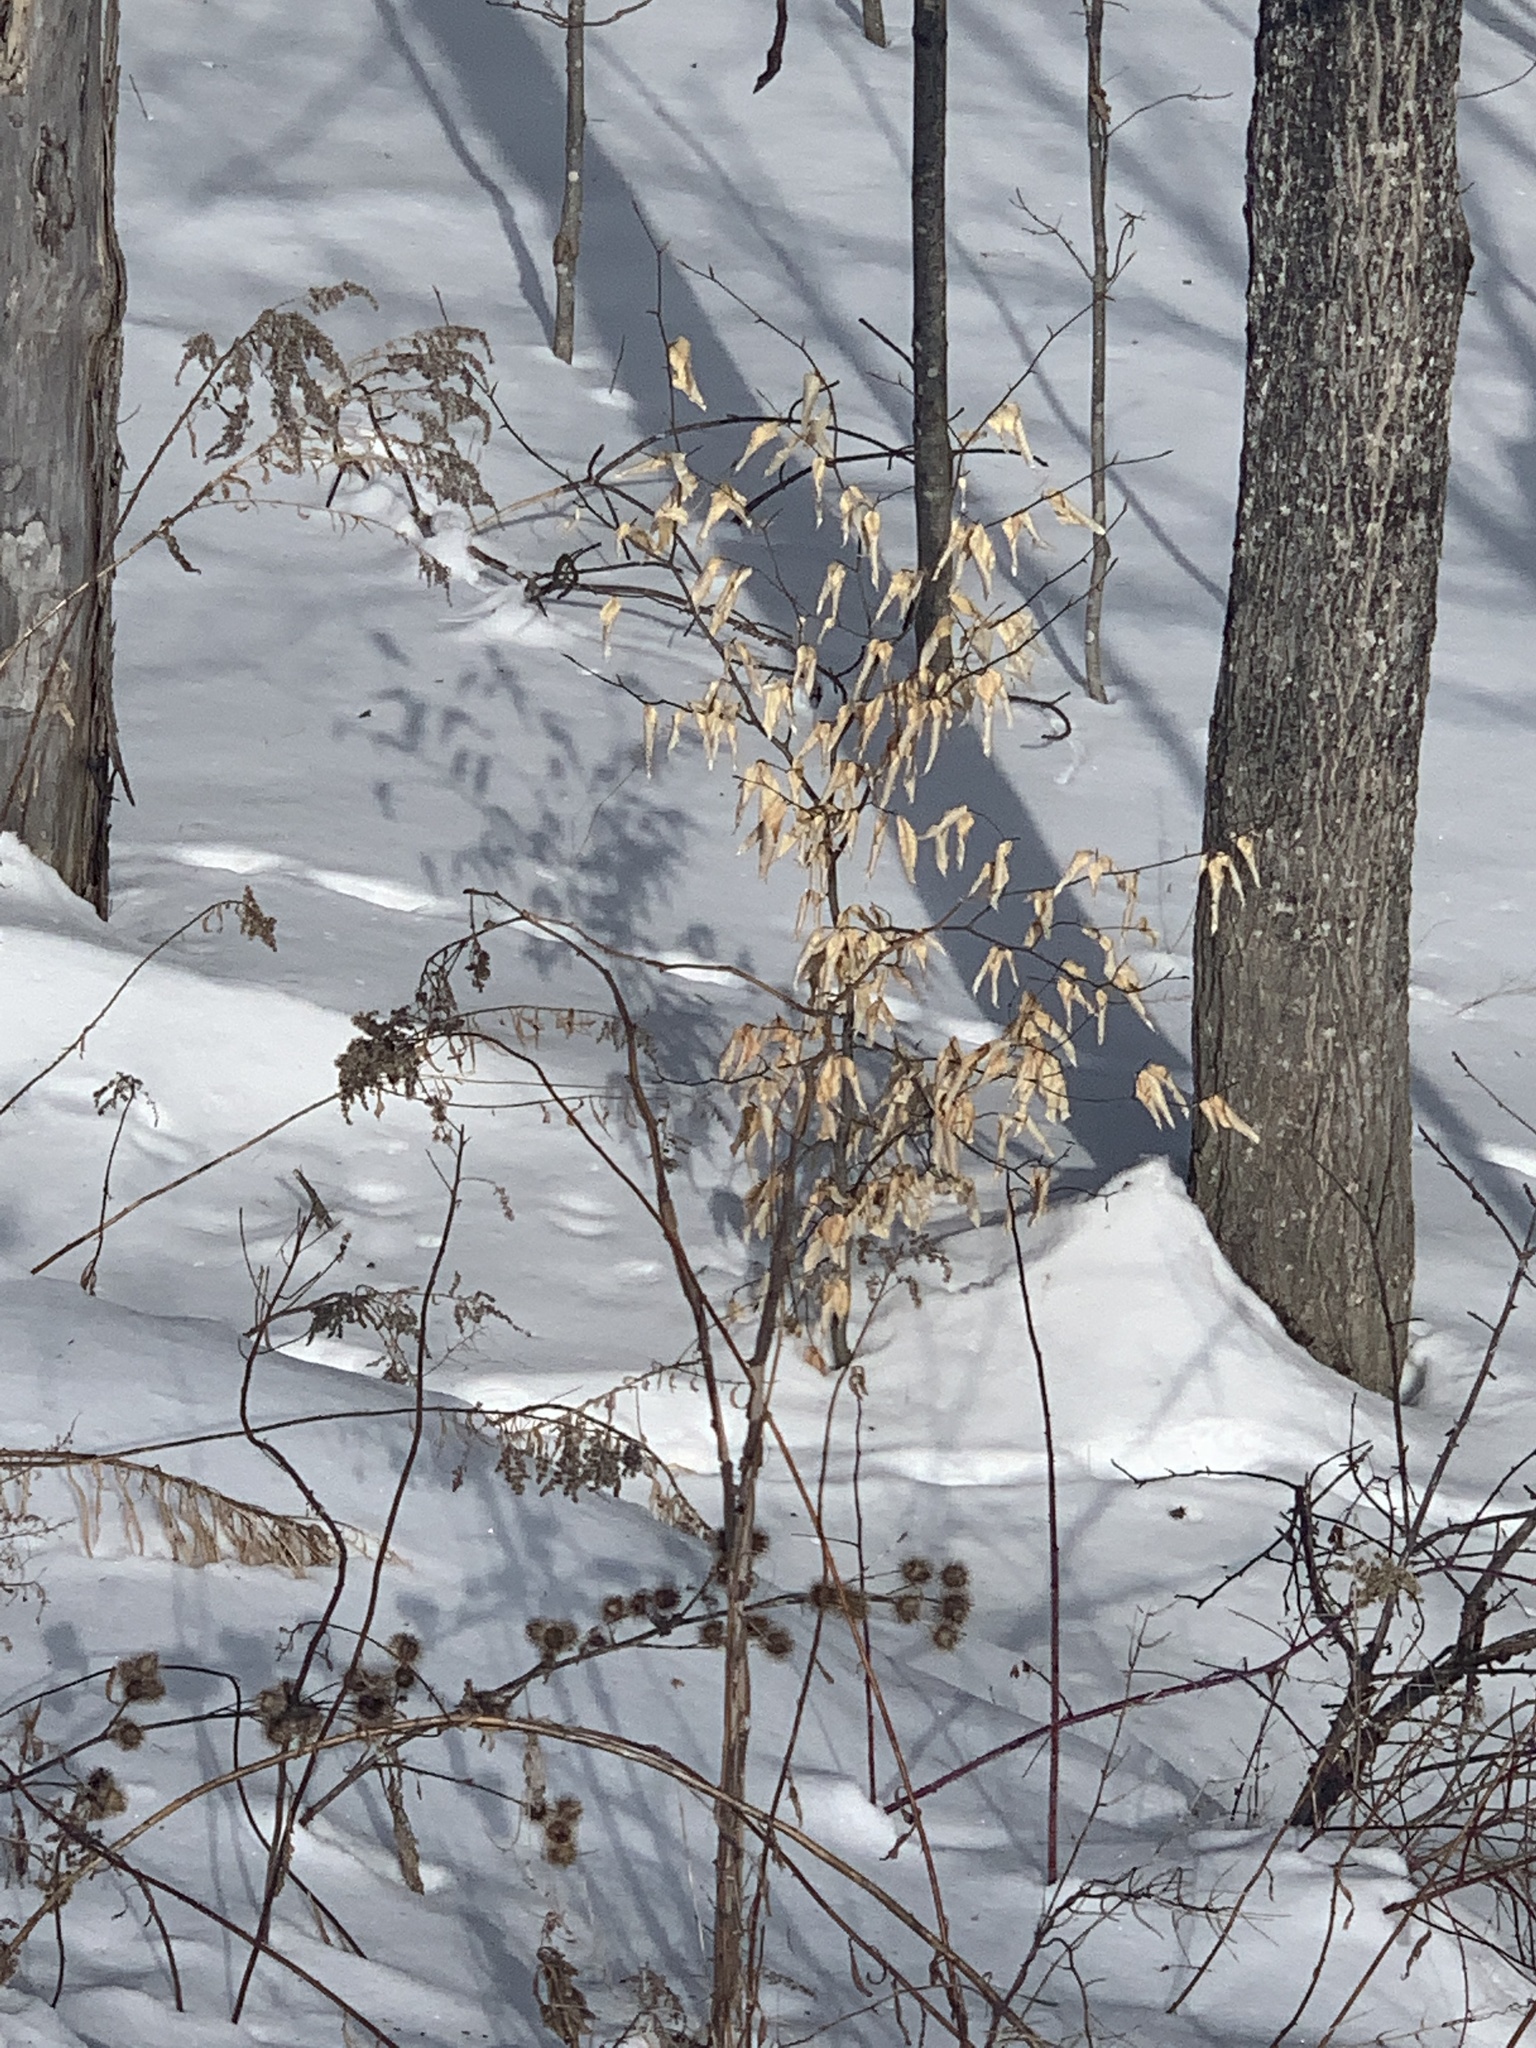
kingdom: Plantae
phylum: Tracheophyta
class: Magnoliopsida
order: Asterales
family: Asteraceae
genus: Arctium
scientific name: Arctium lappa
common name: Greater burdock
